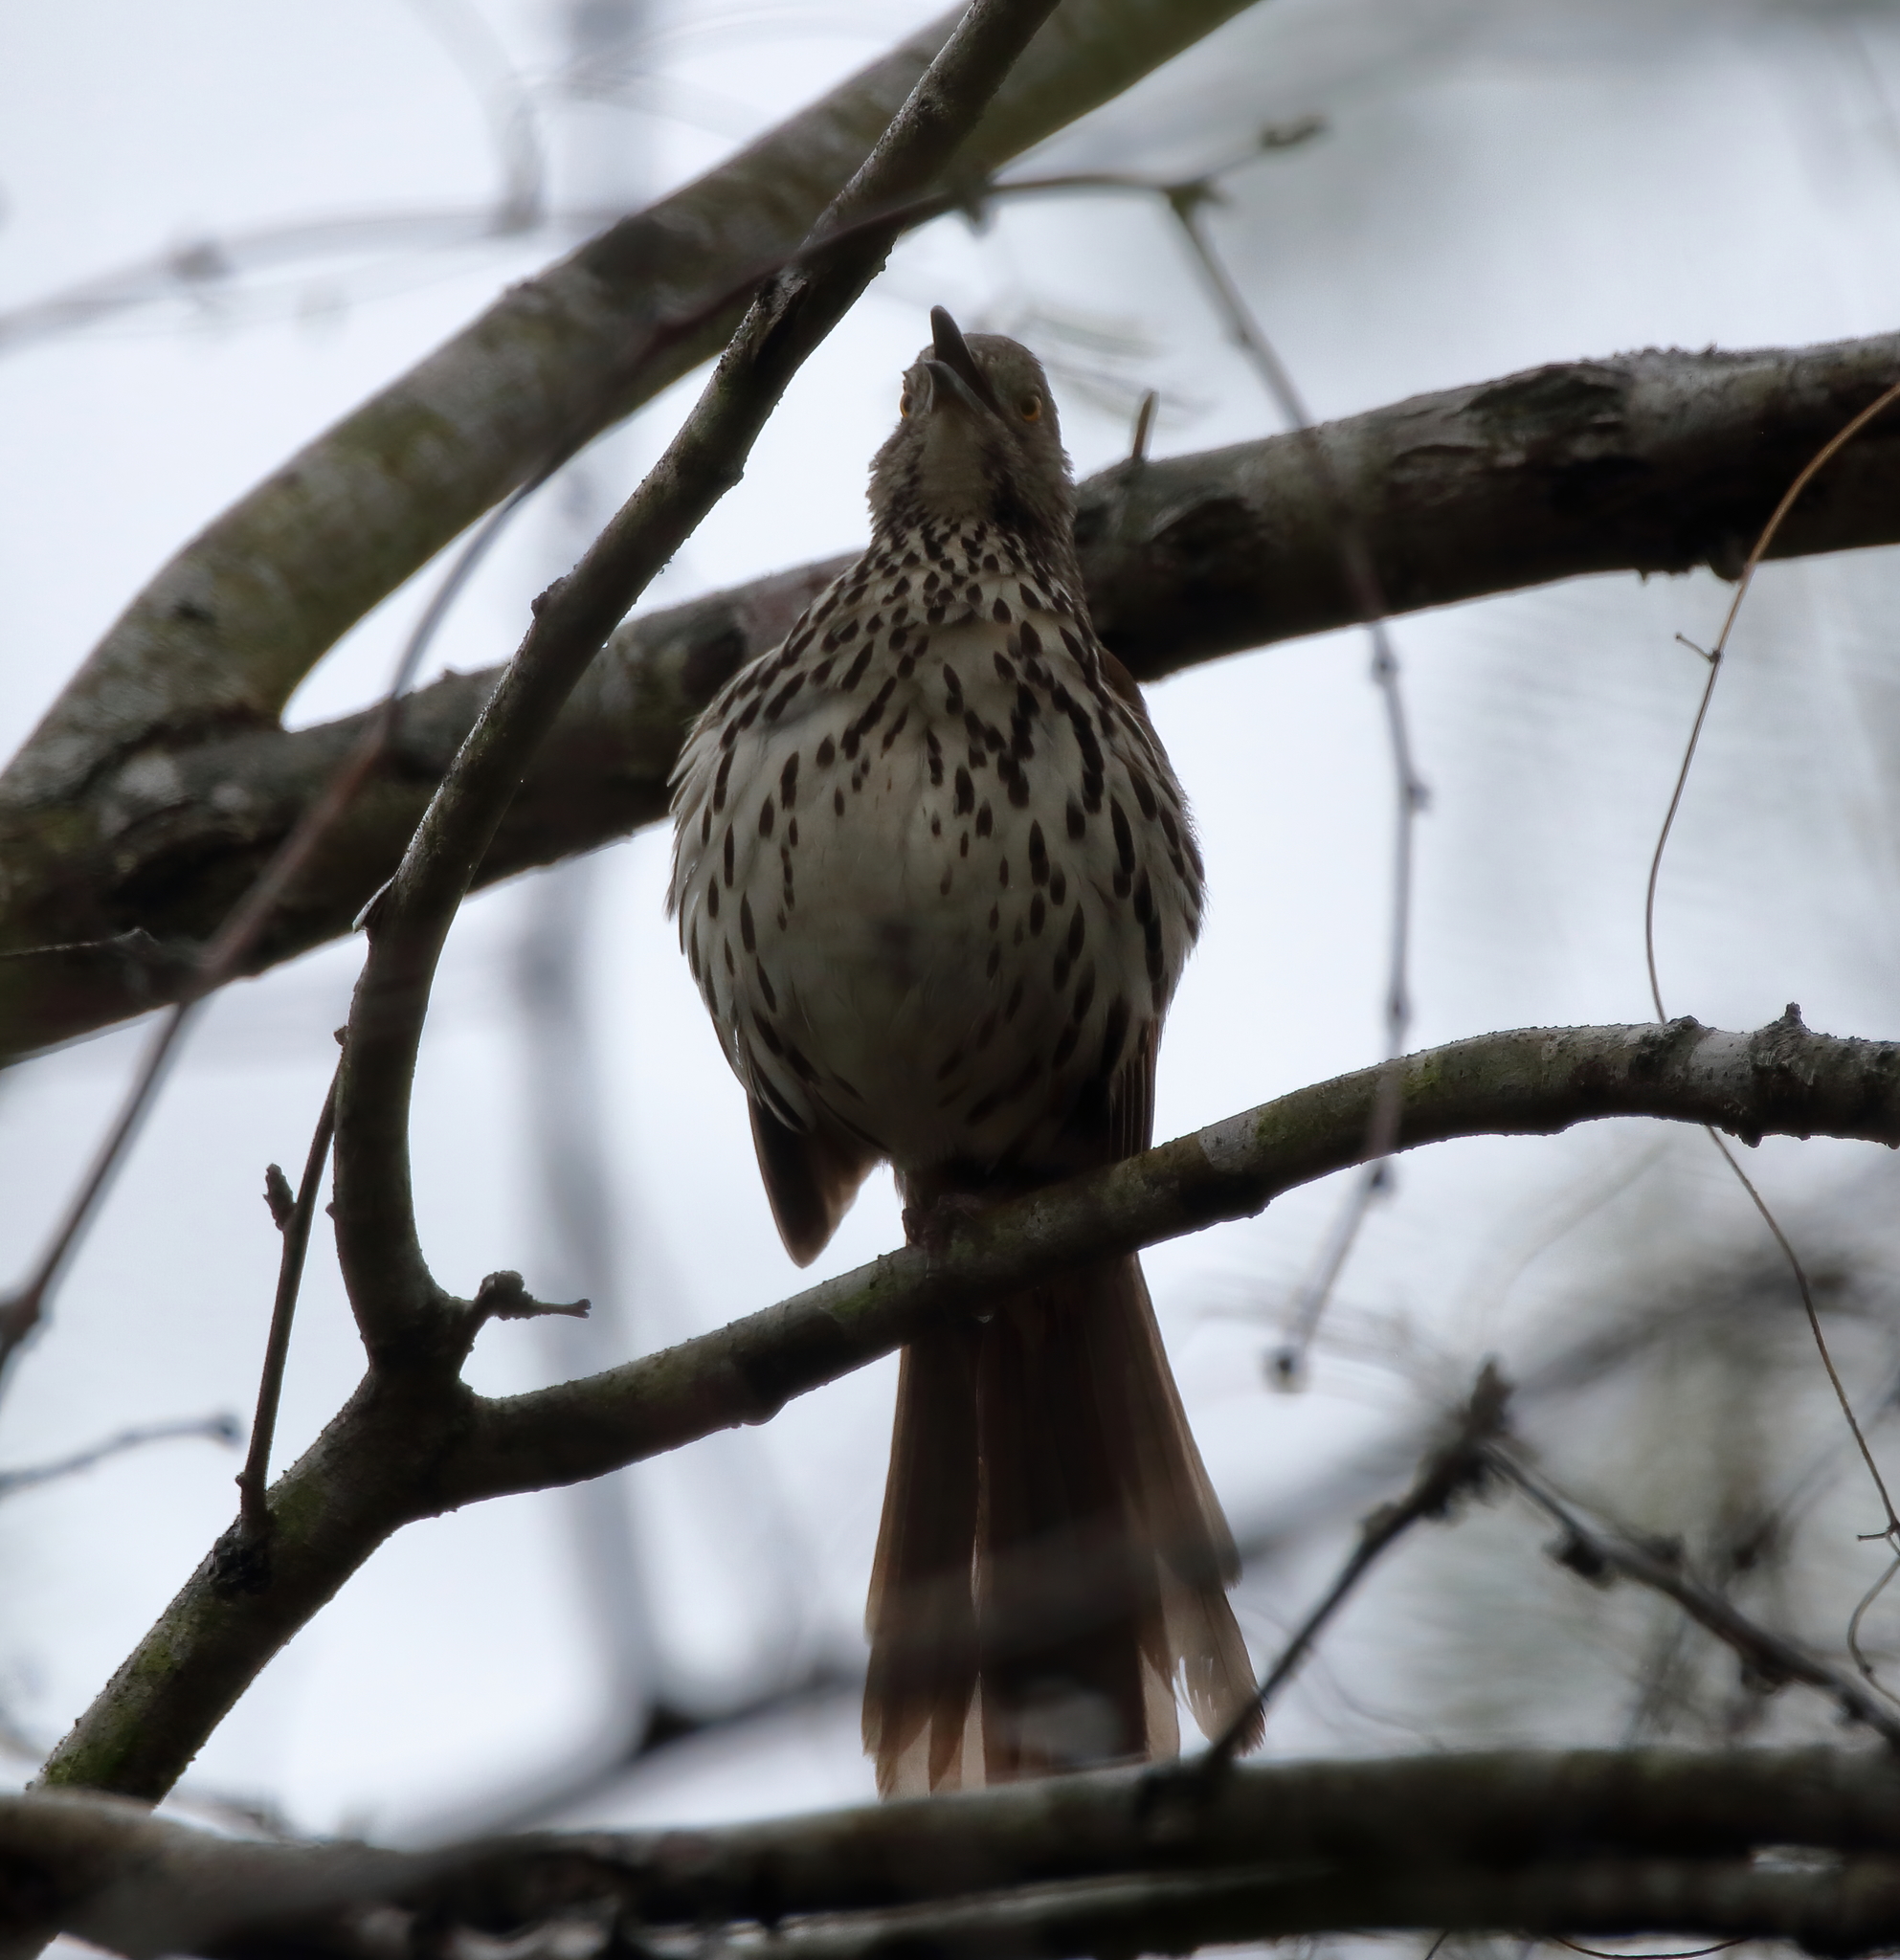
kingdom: Animalia
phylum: Chordata
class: Aves
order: Passeriformes
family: Mimidae
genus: Toxostoma
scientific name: Toxostoma longirostre
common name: Long-billed thrasher
